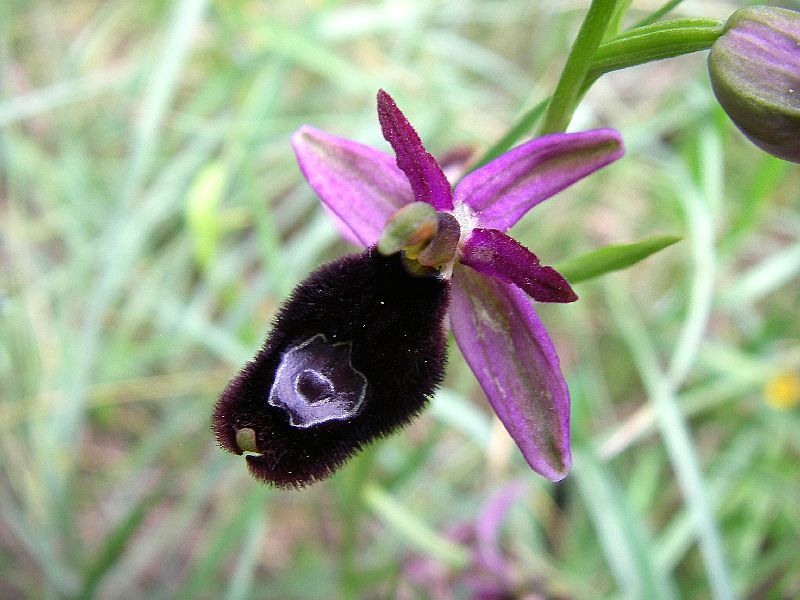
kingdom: Plantae
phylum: Tracheophyta
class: Liliopsida
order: Asparagales
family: Orchidaceae
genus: Ophrys
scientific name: Ophrys bertolonii
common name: Bertoloni's bee orchid
